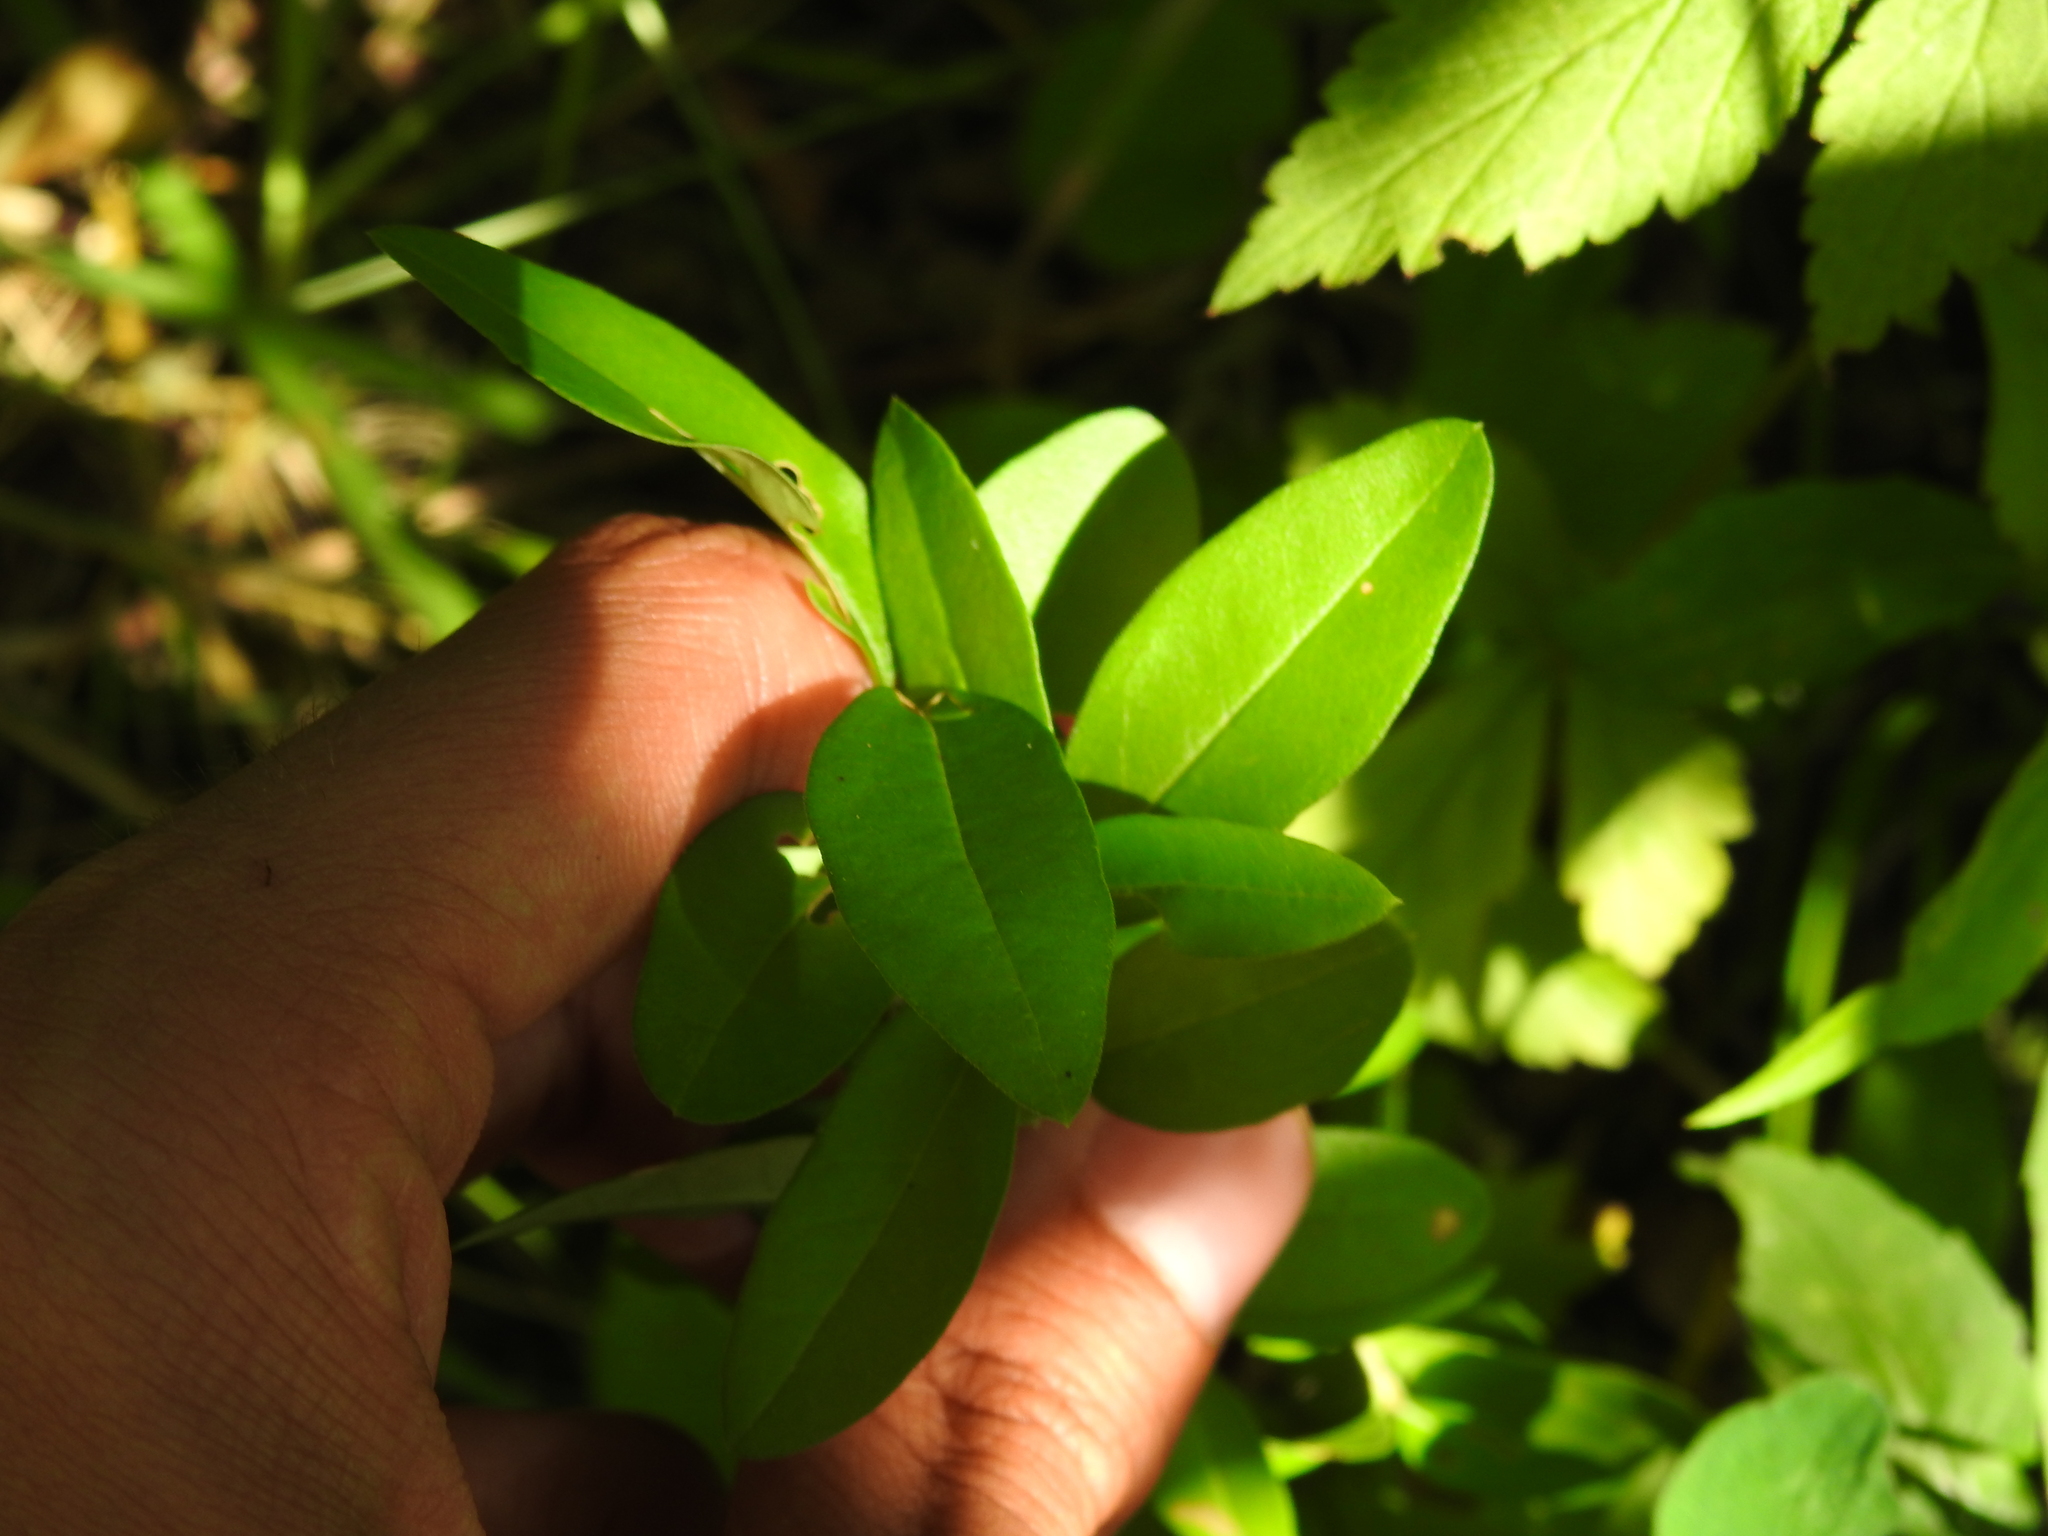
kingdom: Plantae
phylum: Tracheophyta
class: Magnoliopsida
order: Lamiales
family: Oleaceae
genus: Ligustrum
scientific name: Ligustrum
